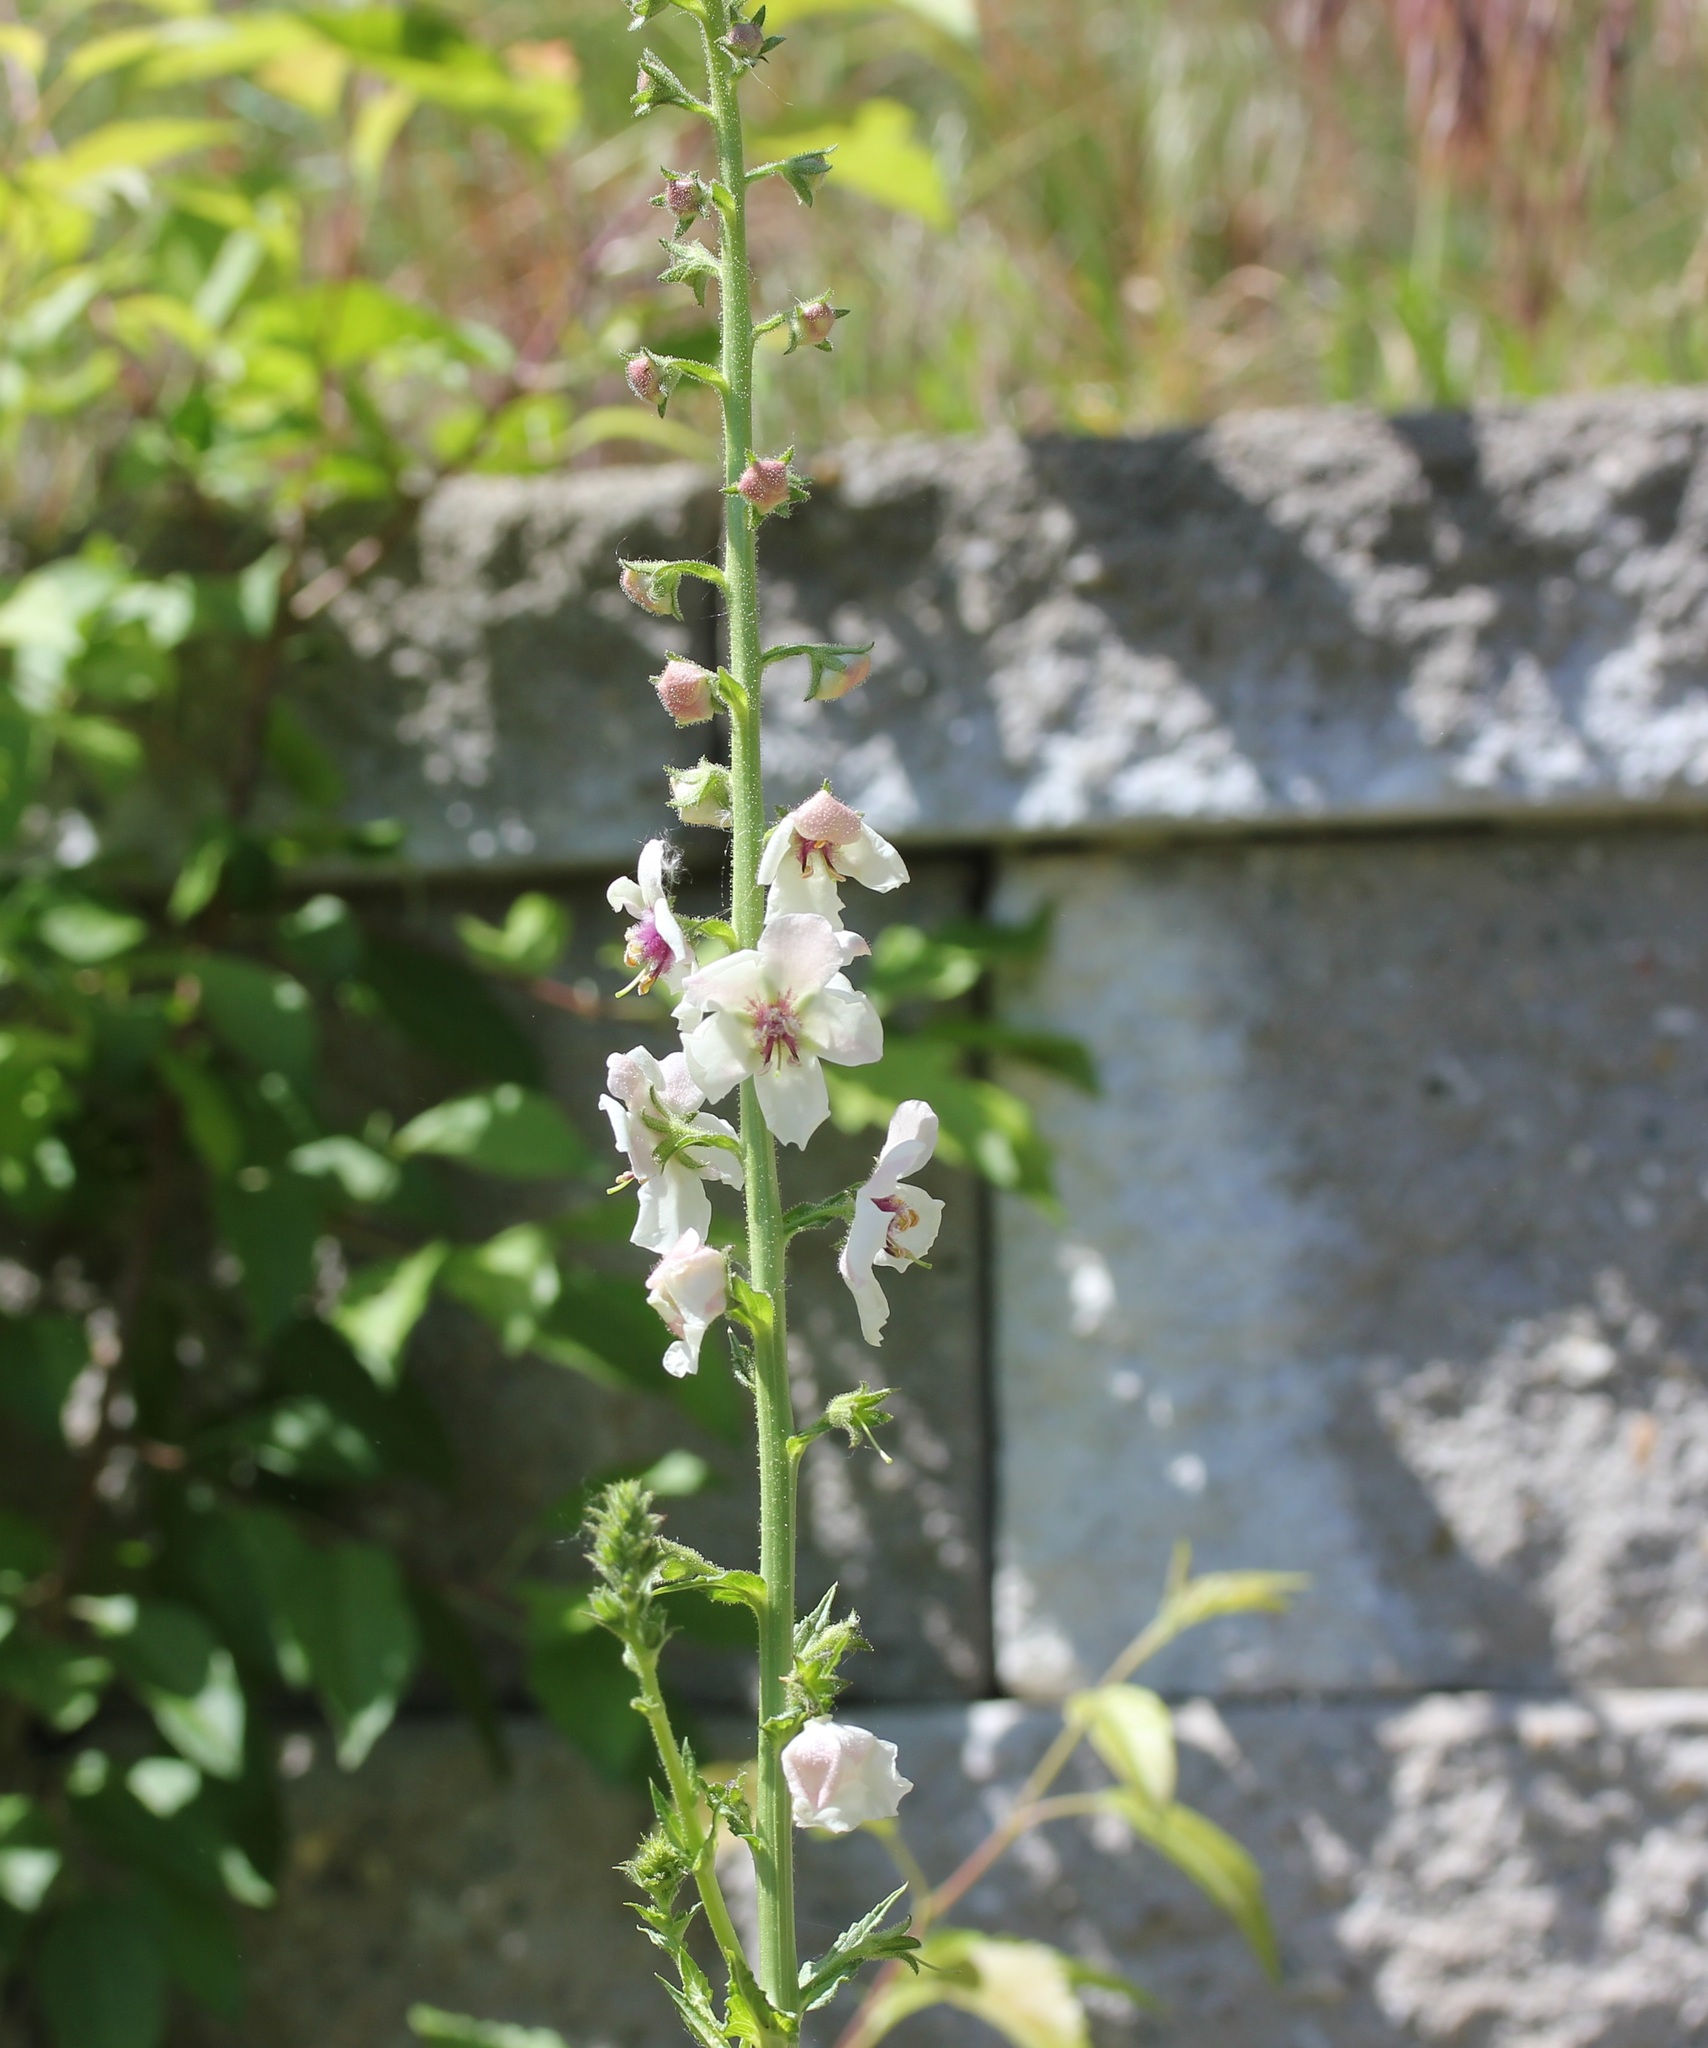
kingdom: Plantae
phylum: Tracheophyta
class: Magnoliopsida
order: Lamiales
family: Scrophulariaceae
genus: Verbascum
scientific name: Verbascum blattaria
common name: Moth mullein
